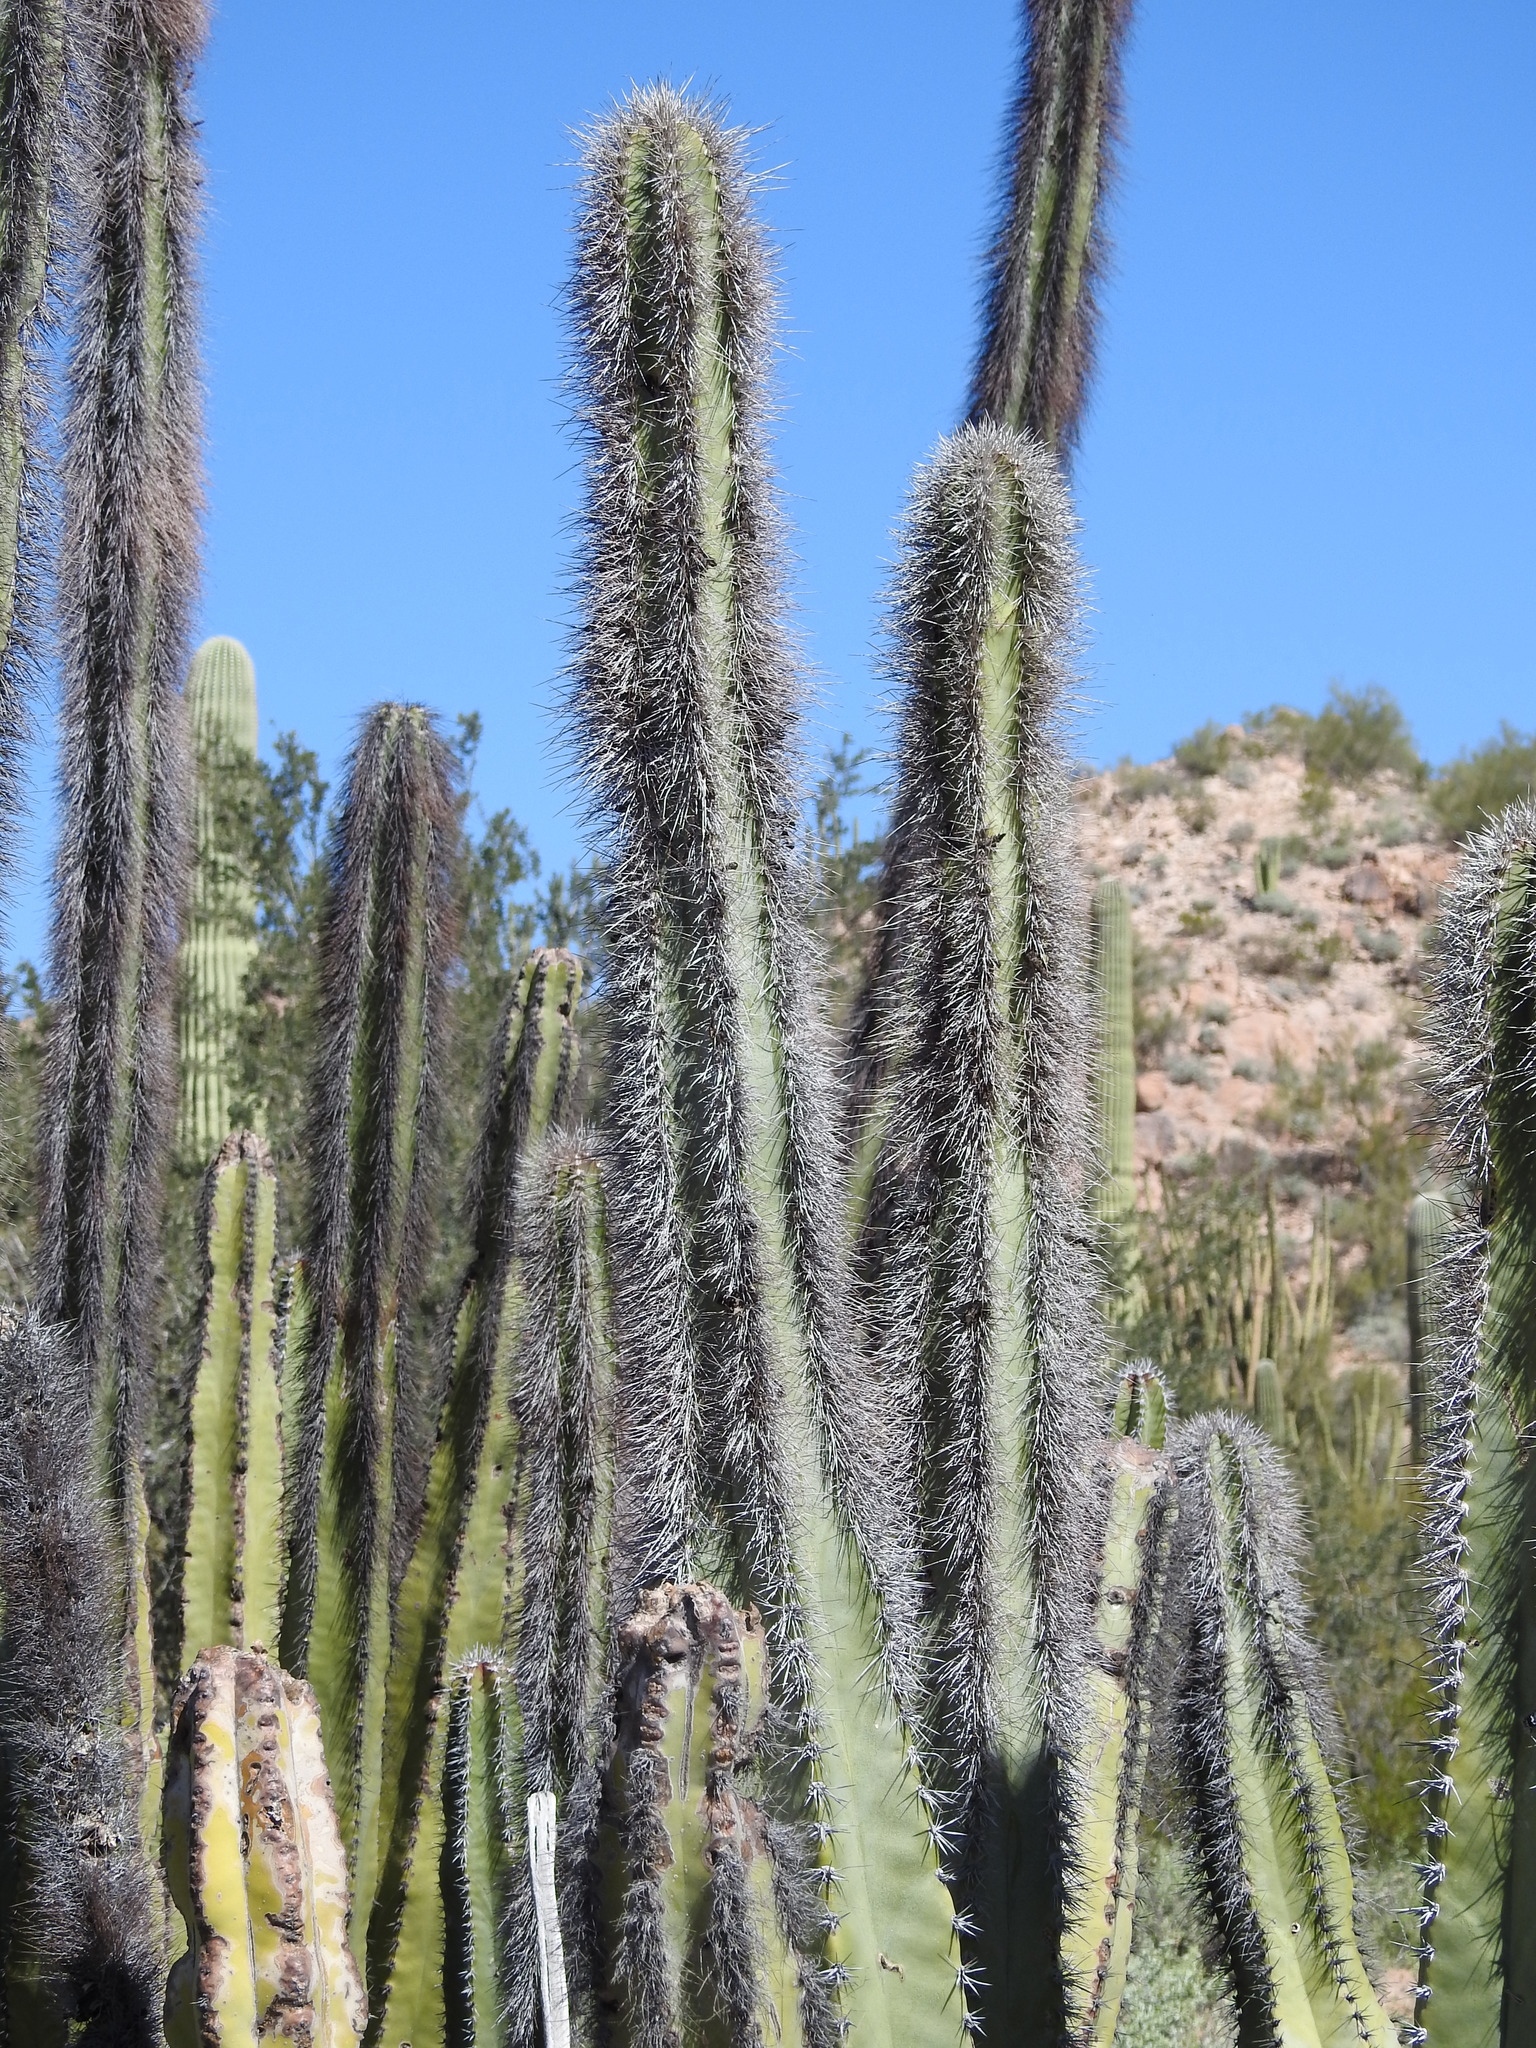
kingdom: Plantae
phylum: Tracheophyta
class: Magnoliopsida
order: Caryophyllales
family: Cactaceae
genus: Pachycereus
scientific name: Pachycereus schottii
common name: Senita cactus
